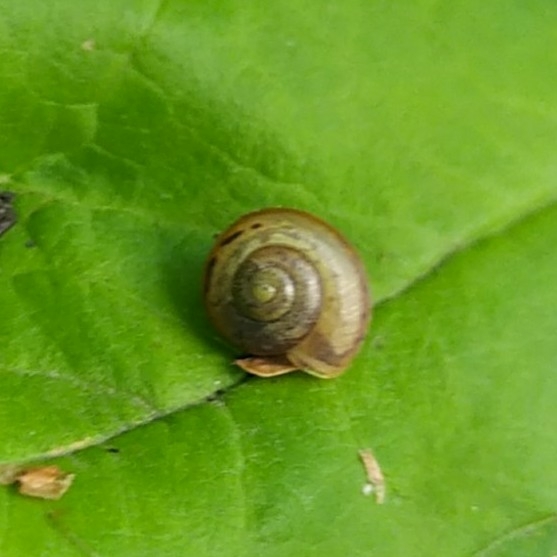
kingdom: Animalia
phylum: Mollusca
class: Gastropoda
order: Stylommatophora
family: Camaenidae
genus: Fruticicola
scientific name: Fruticicola fruticum
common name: Bush snail
